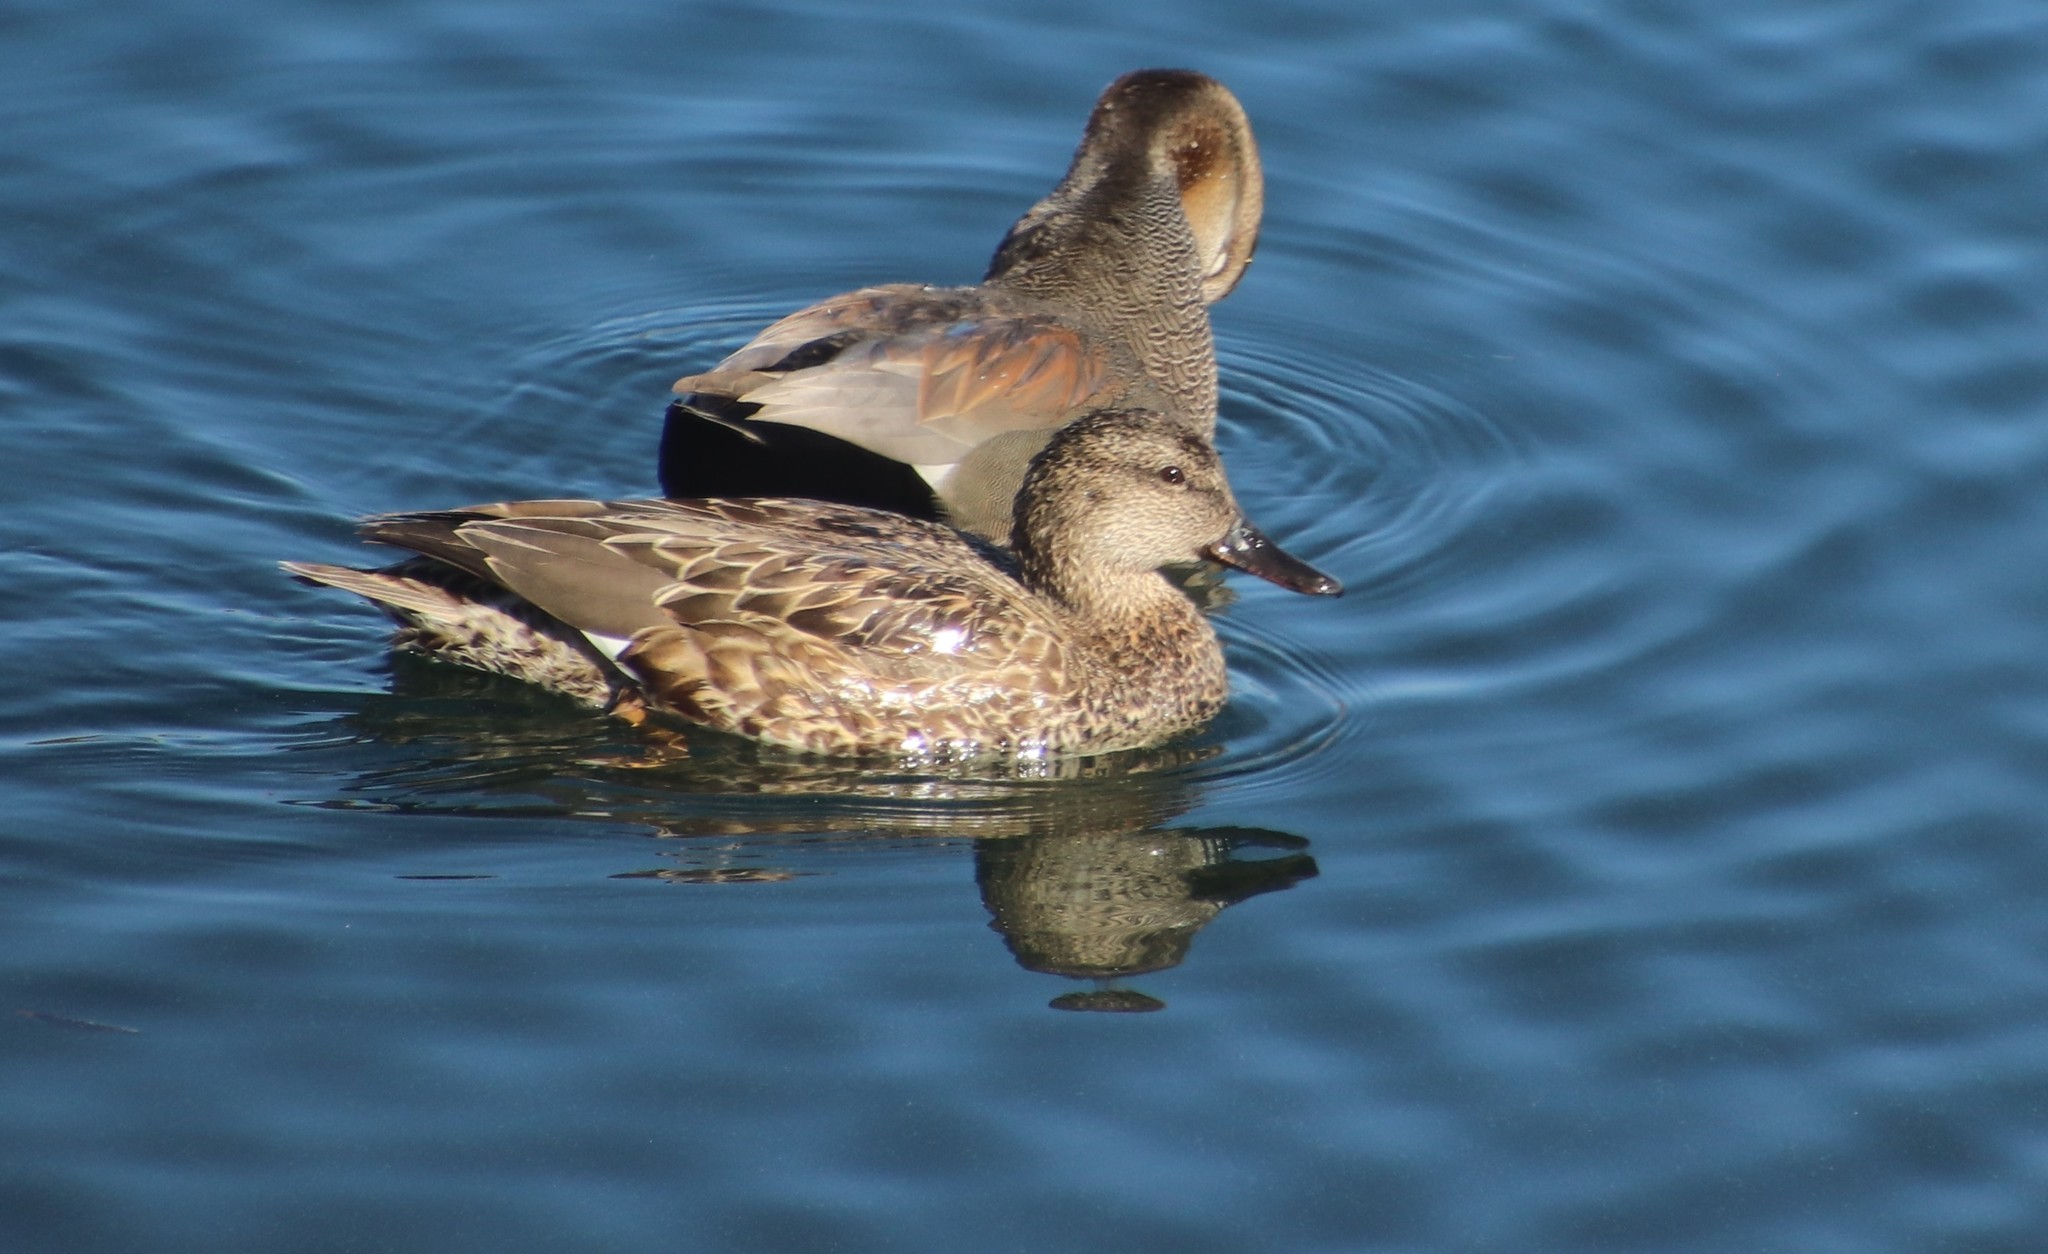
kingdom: Animalia
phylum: Chordata
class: Aves
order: Anseriformes
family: Anatidae
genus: Mareca
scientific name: Mareca strepera
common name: Gadwall
